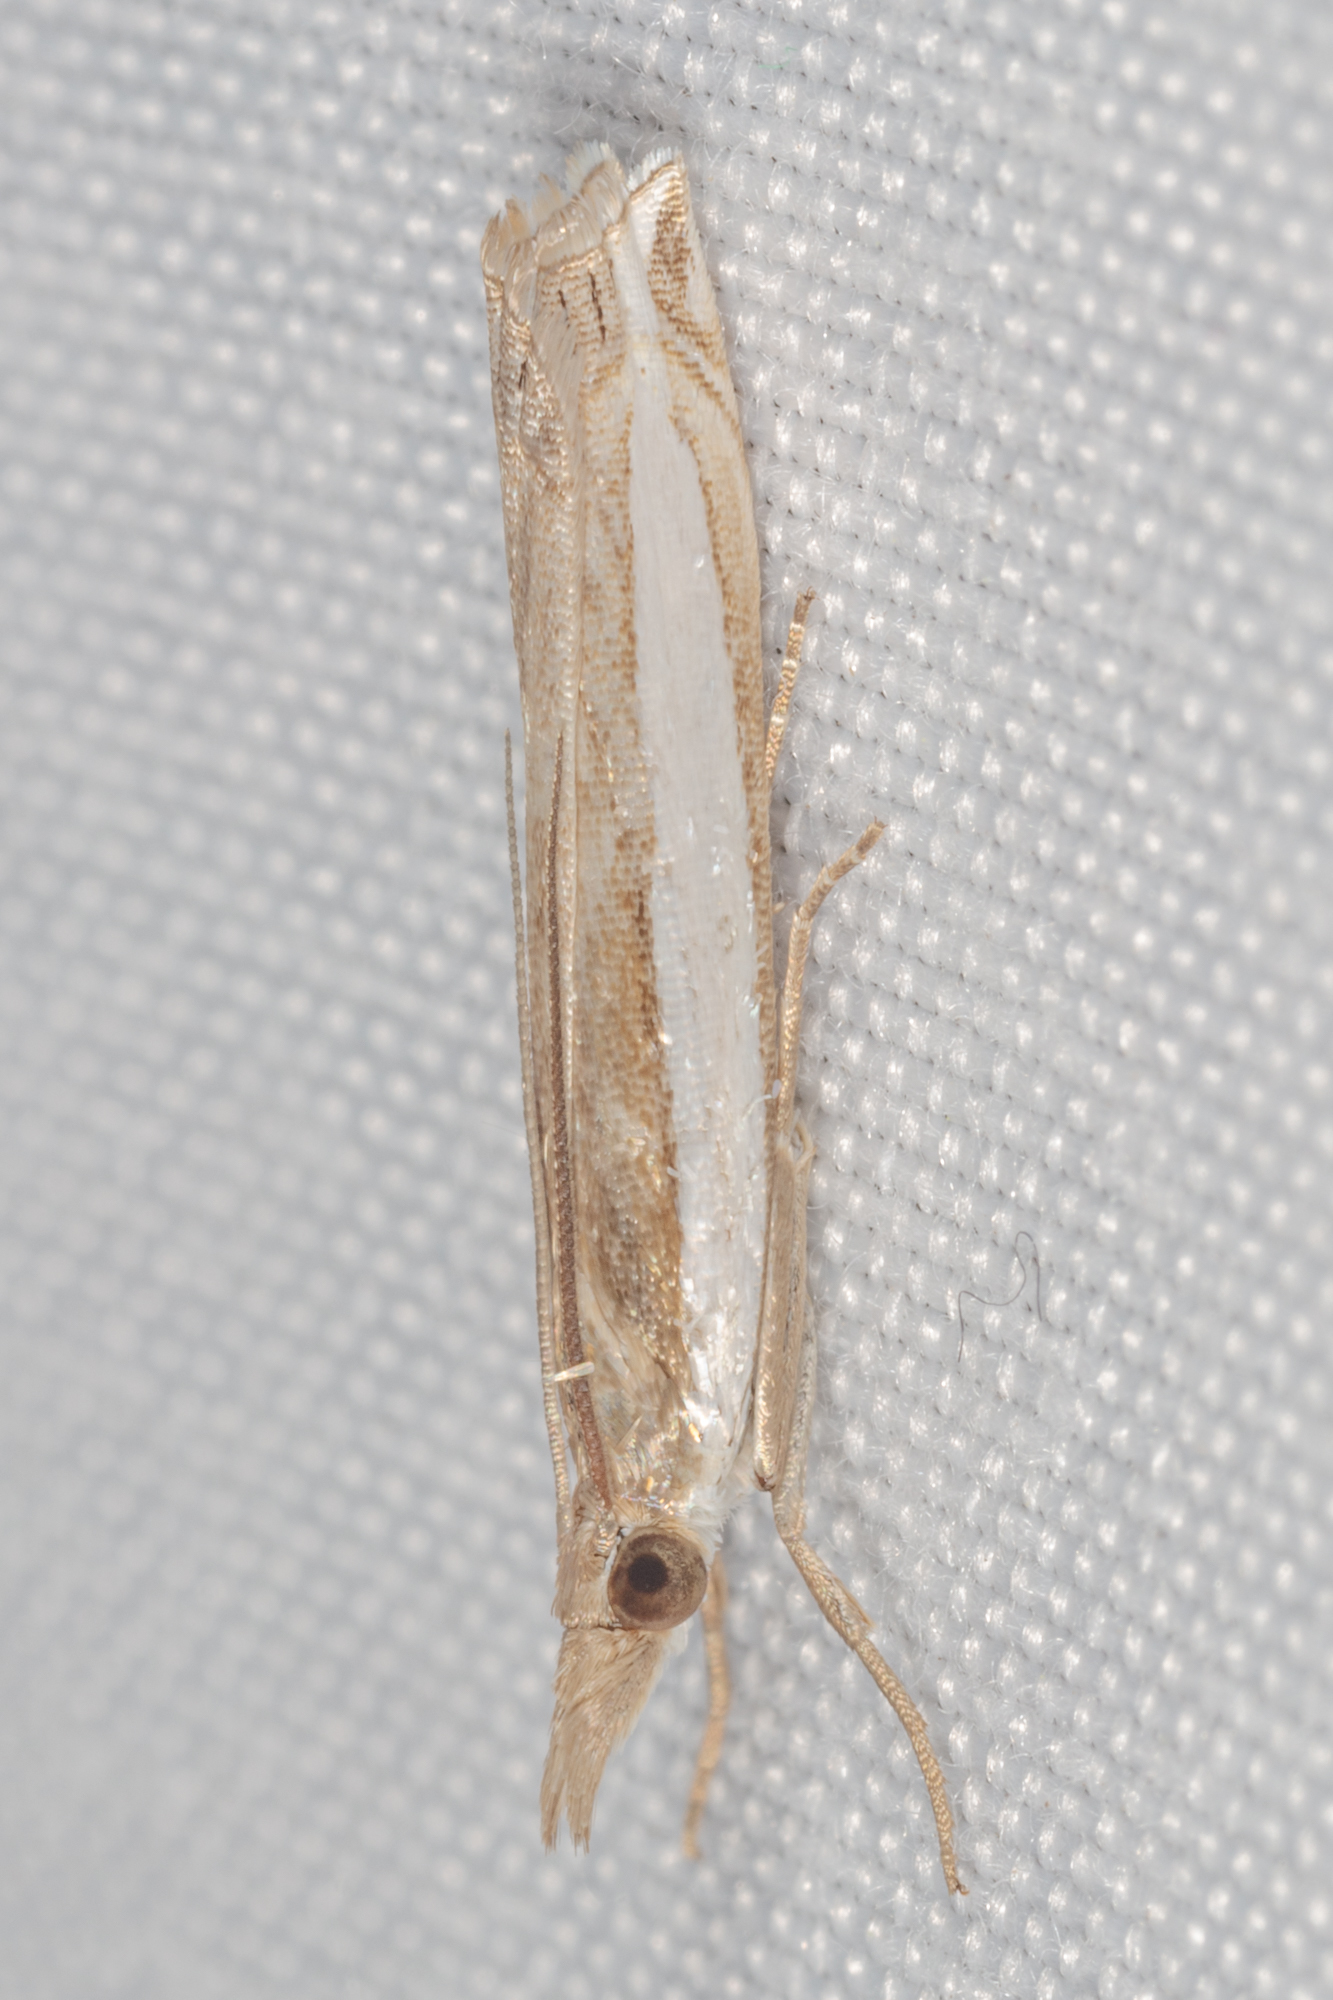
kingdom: Animalia
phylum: Arthropoda
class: Insecta
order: Lepidoptera
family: Crambidae
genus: Crambus
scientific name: Crambus quinquareatus
